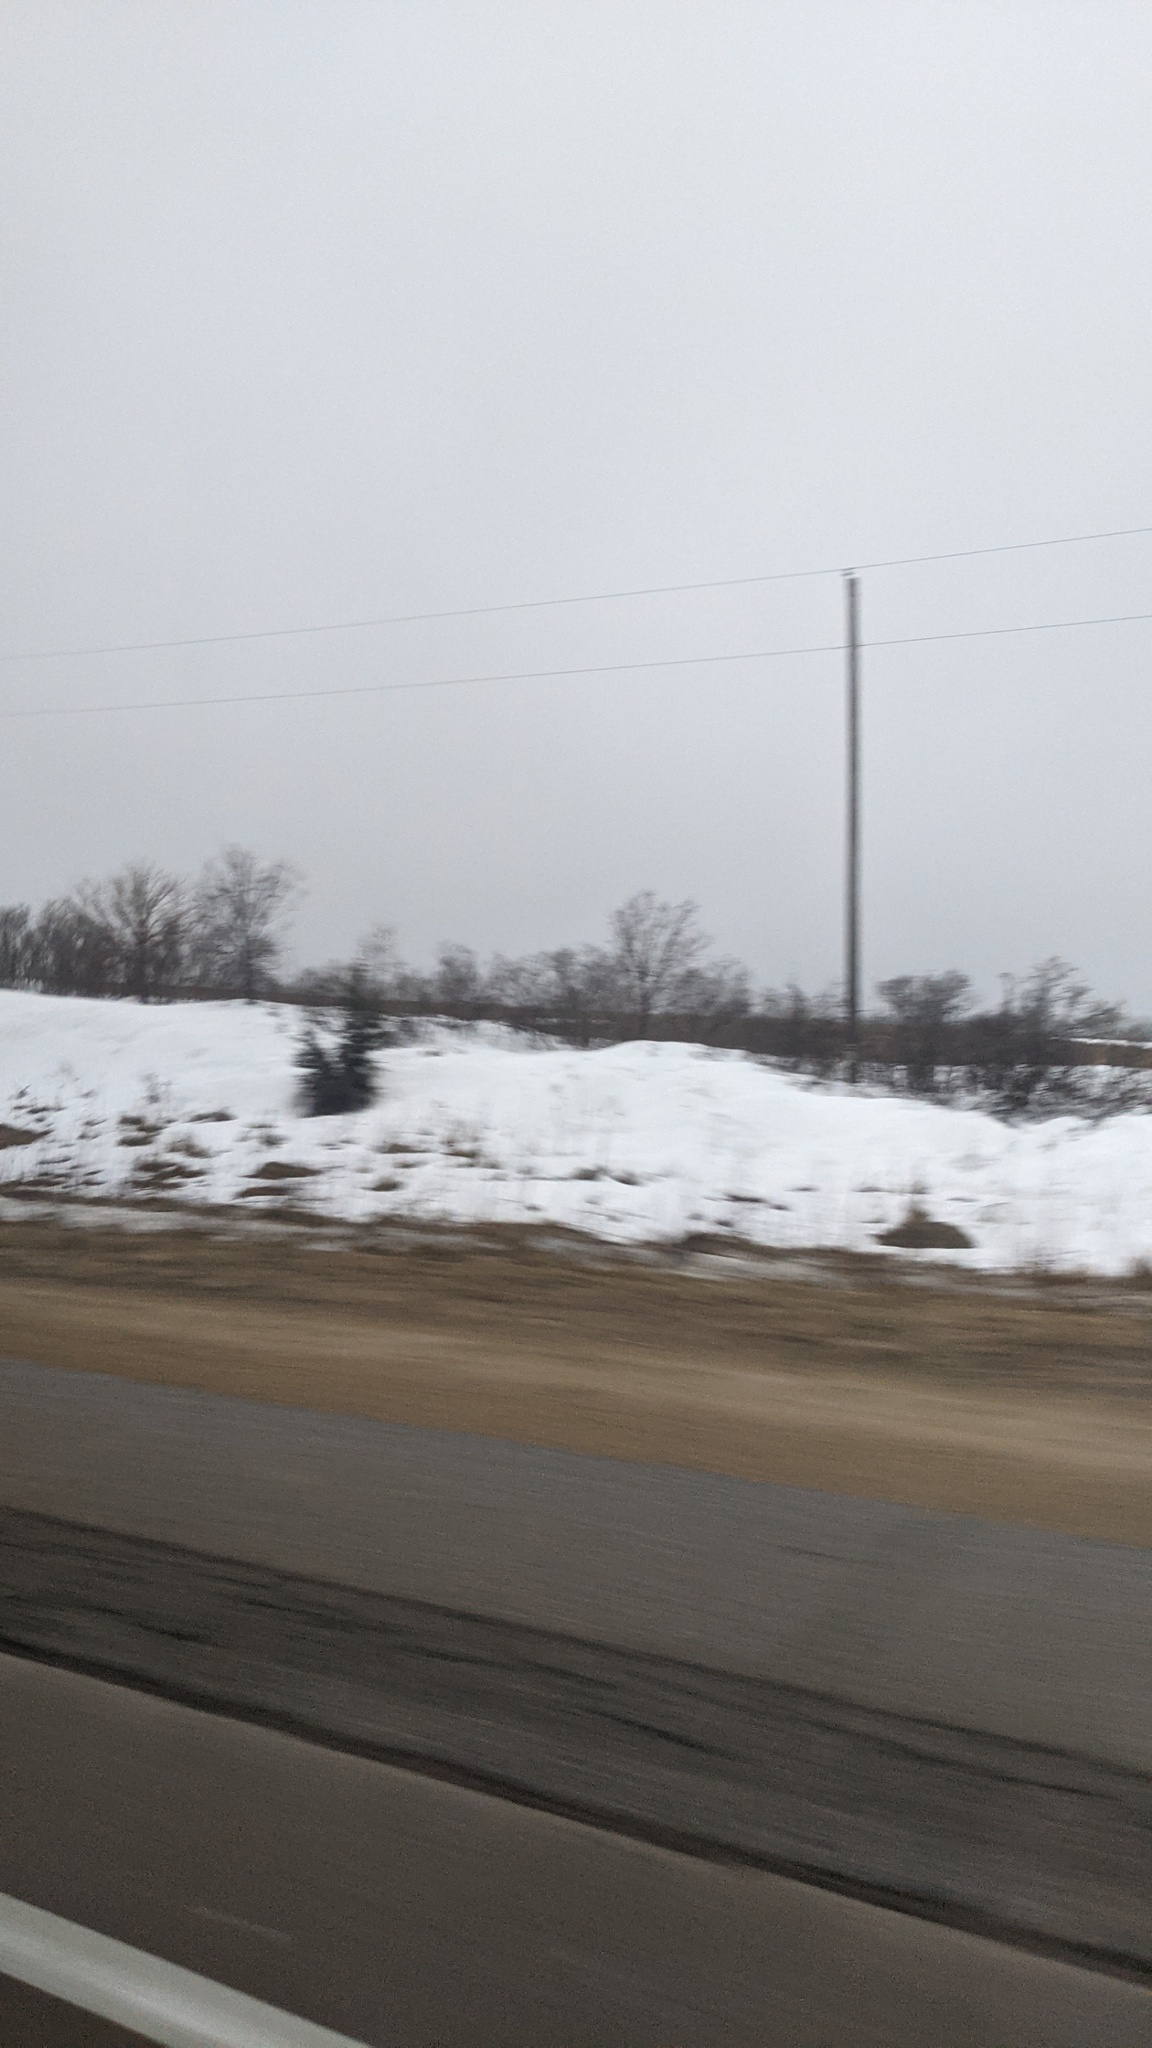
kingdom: Plantae
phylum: Tracheophyta
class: Pinopsida
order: Pinales
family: Cupressaceae
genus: Juniperus
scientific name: Juniperus virginiana
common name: Red juniper
